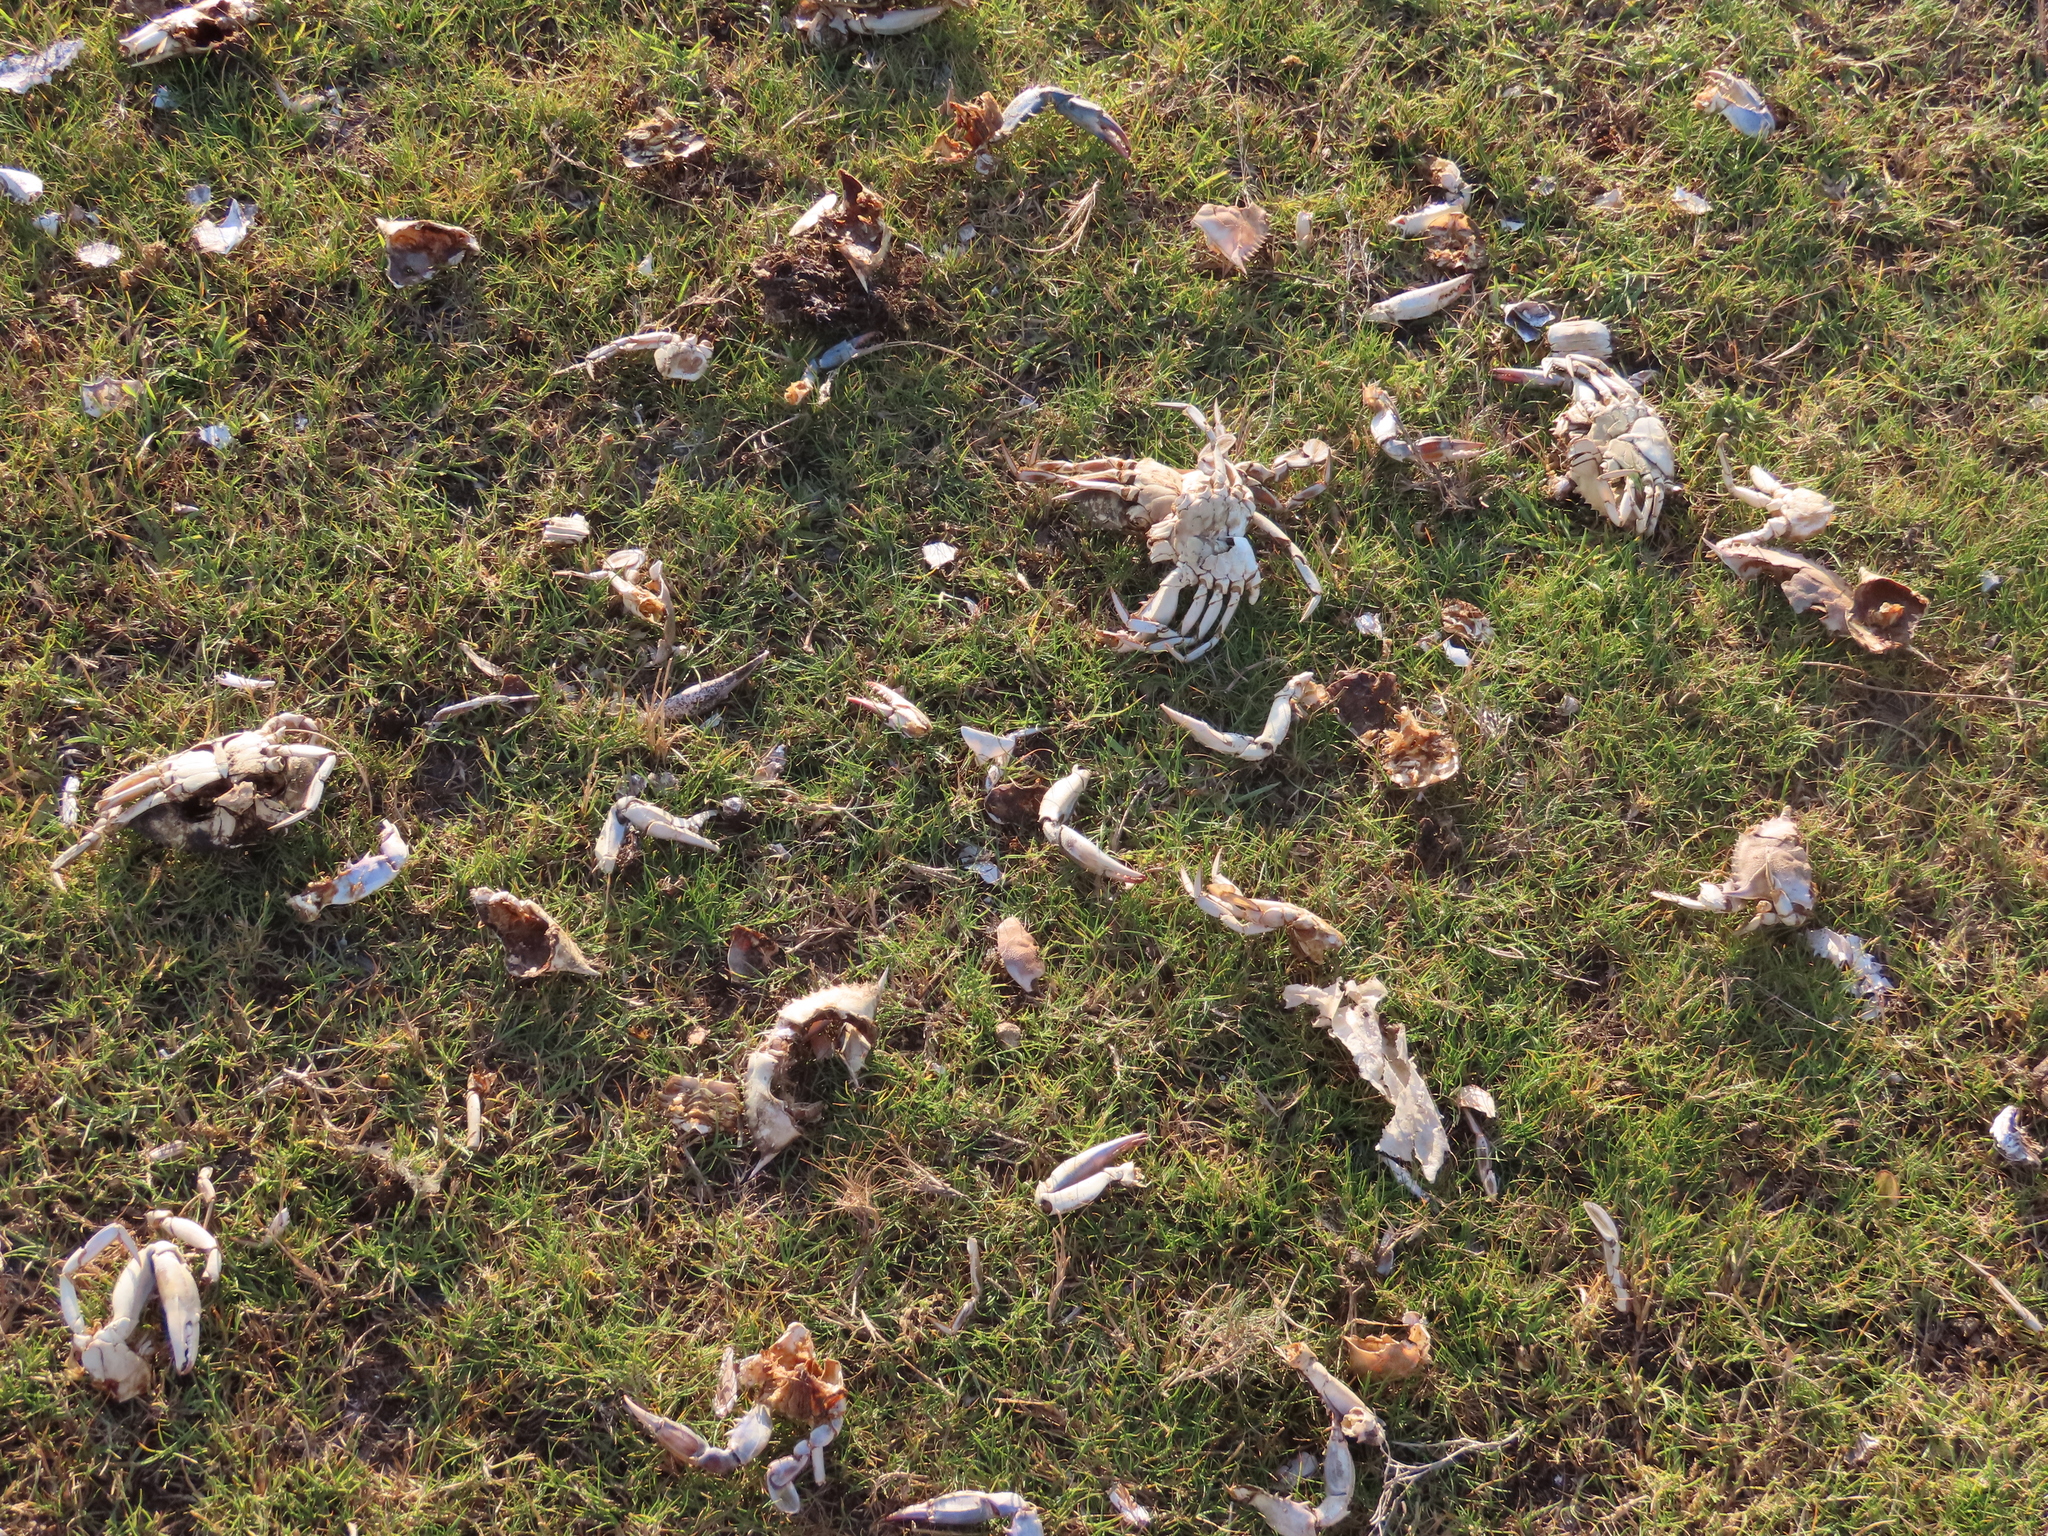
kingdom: Animalia
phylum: Arthropoda
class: Malacostraca
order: Decapoda
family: Portunidae
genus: Callinectes
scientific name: Callinectes sapidus
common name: Blue crab
